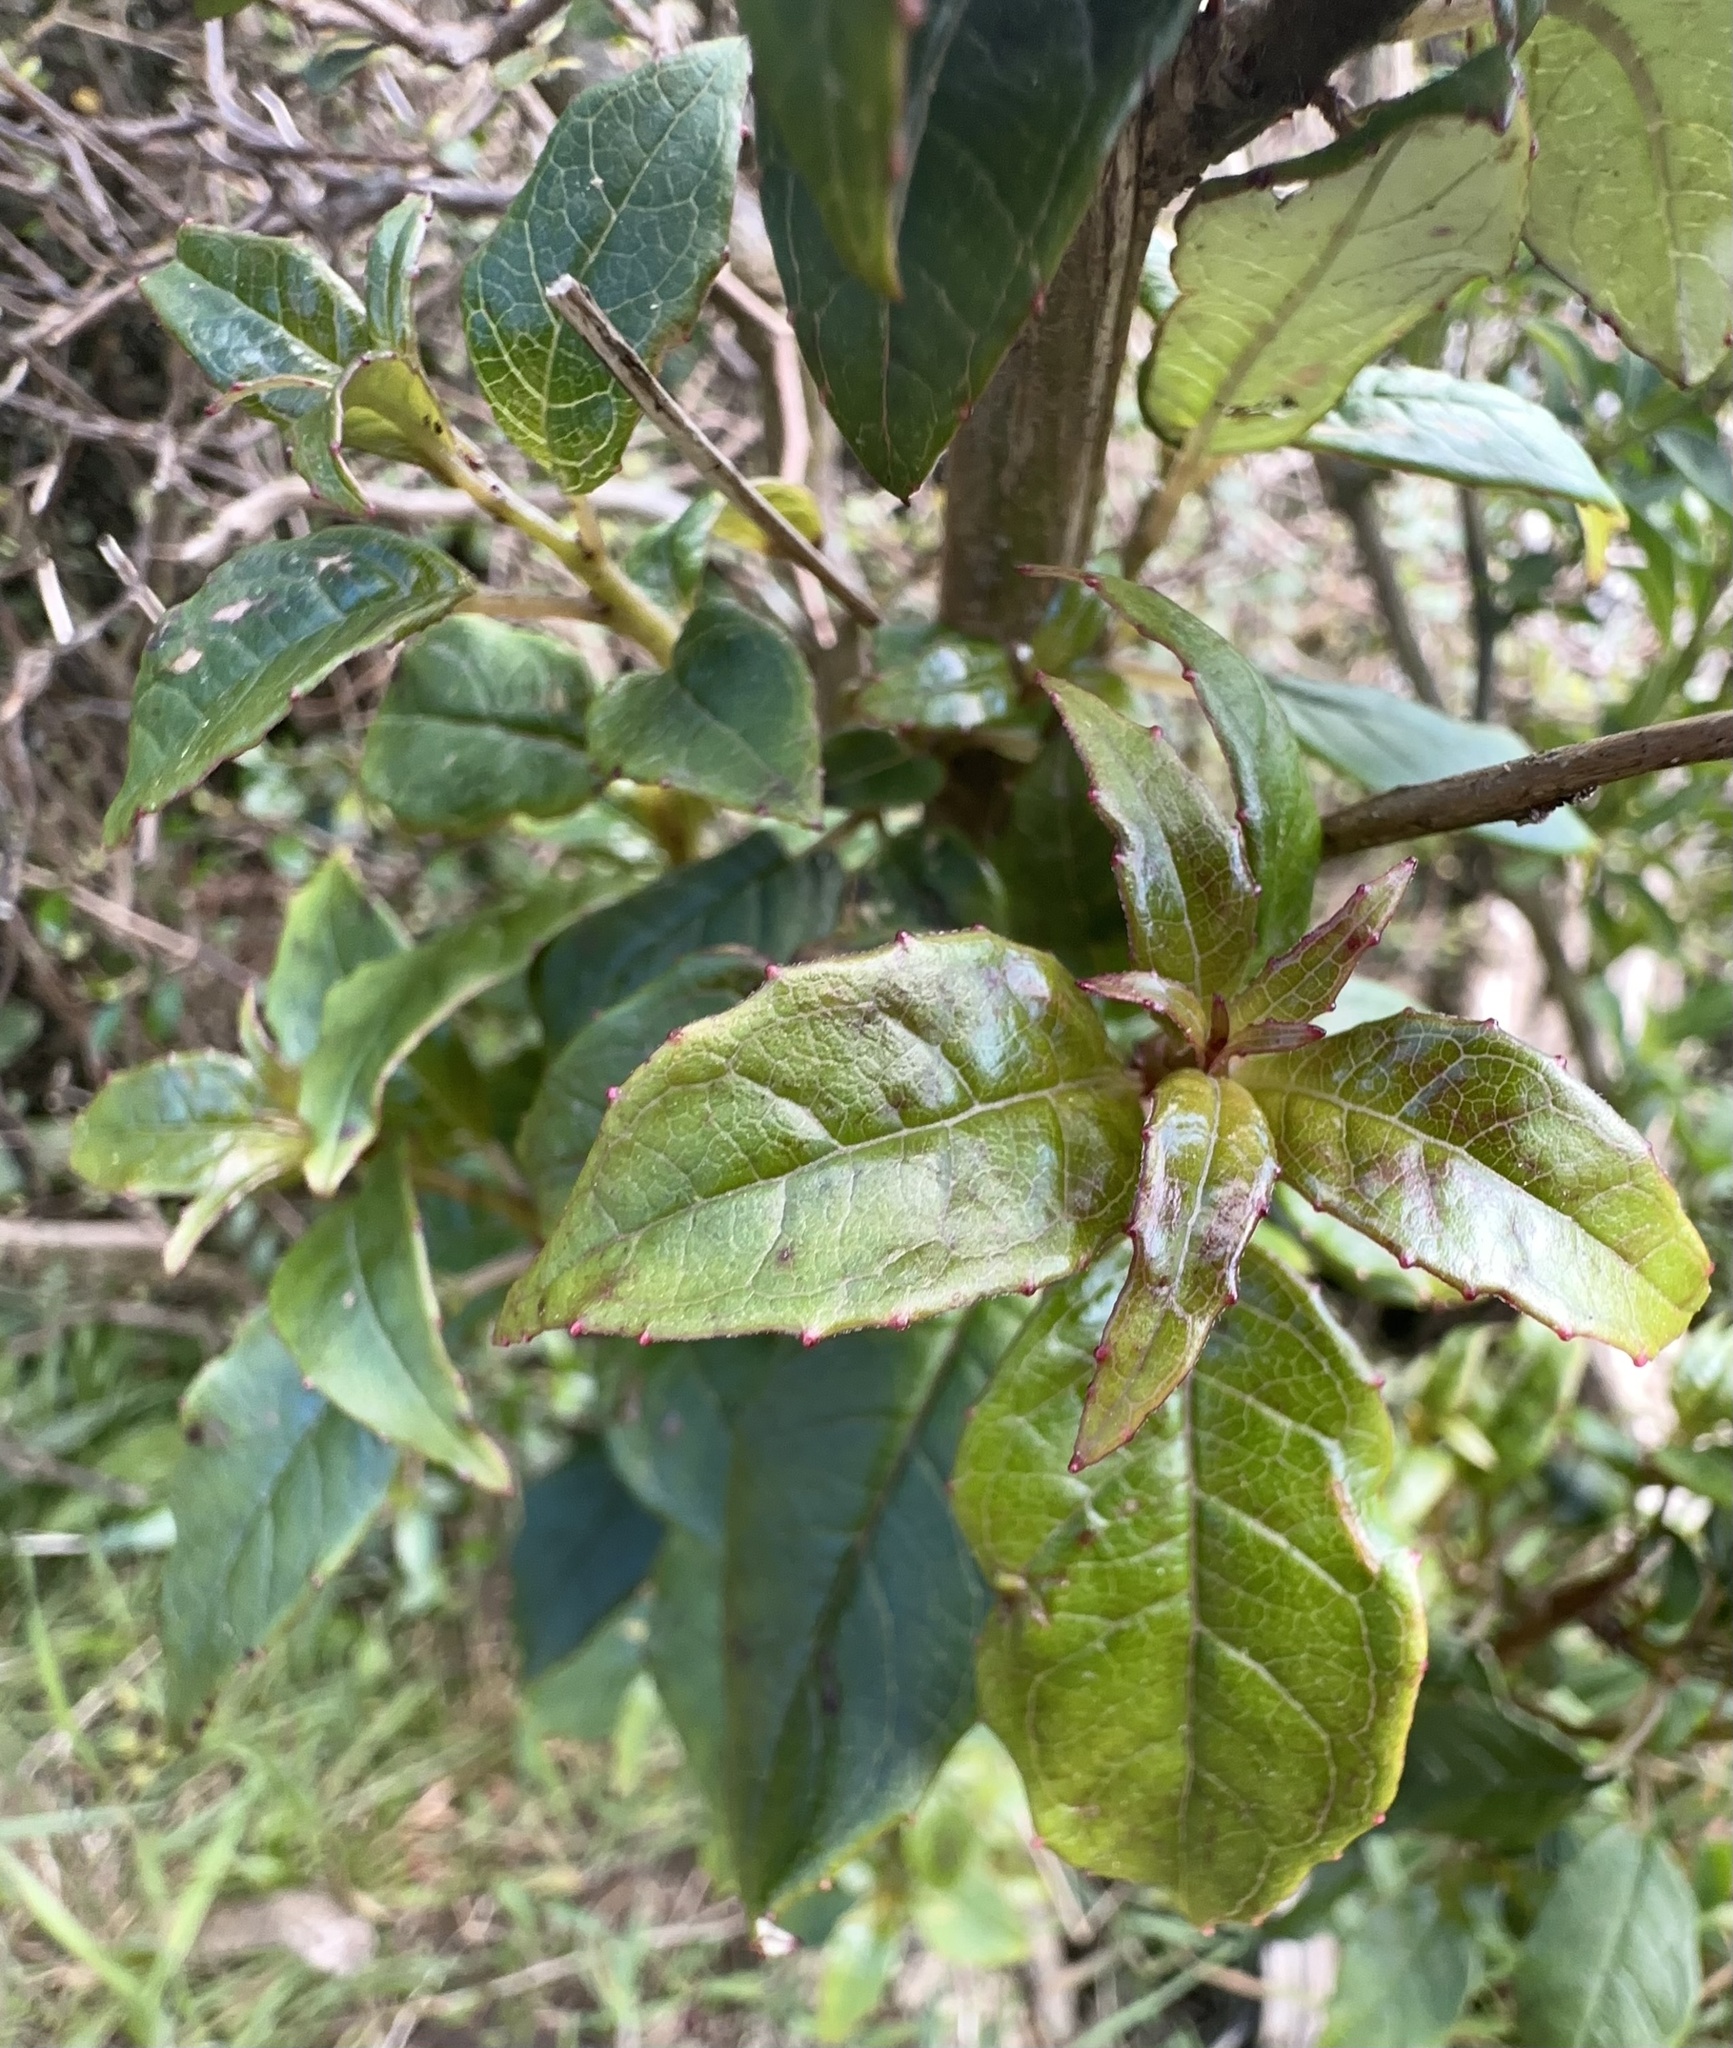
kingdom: Plantae
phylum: Tracheophyta
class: Magnoliopsida
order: Myrtales
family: Onagraceae
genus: Fuchsia
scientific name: Fuchsia excorticata
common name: Tree fuchsia
